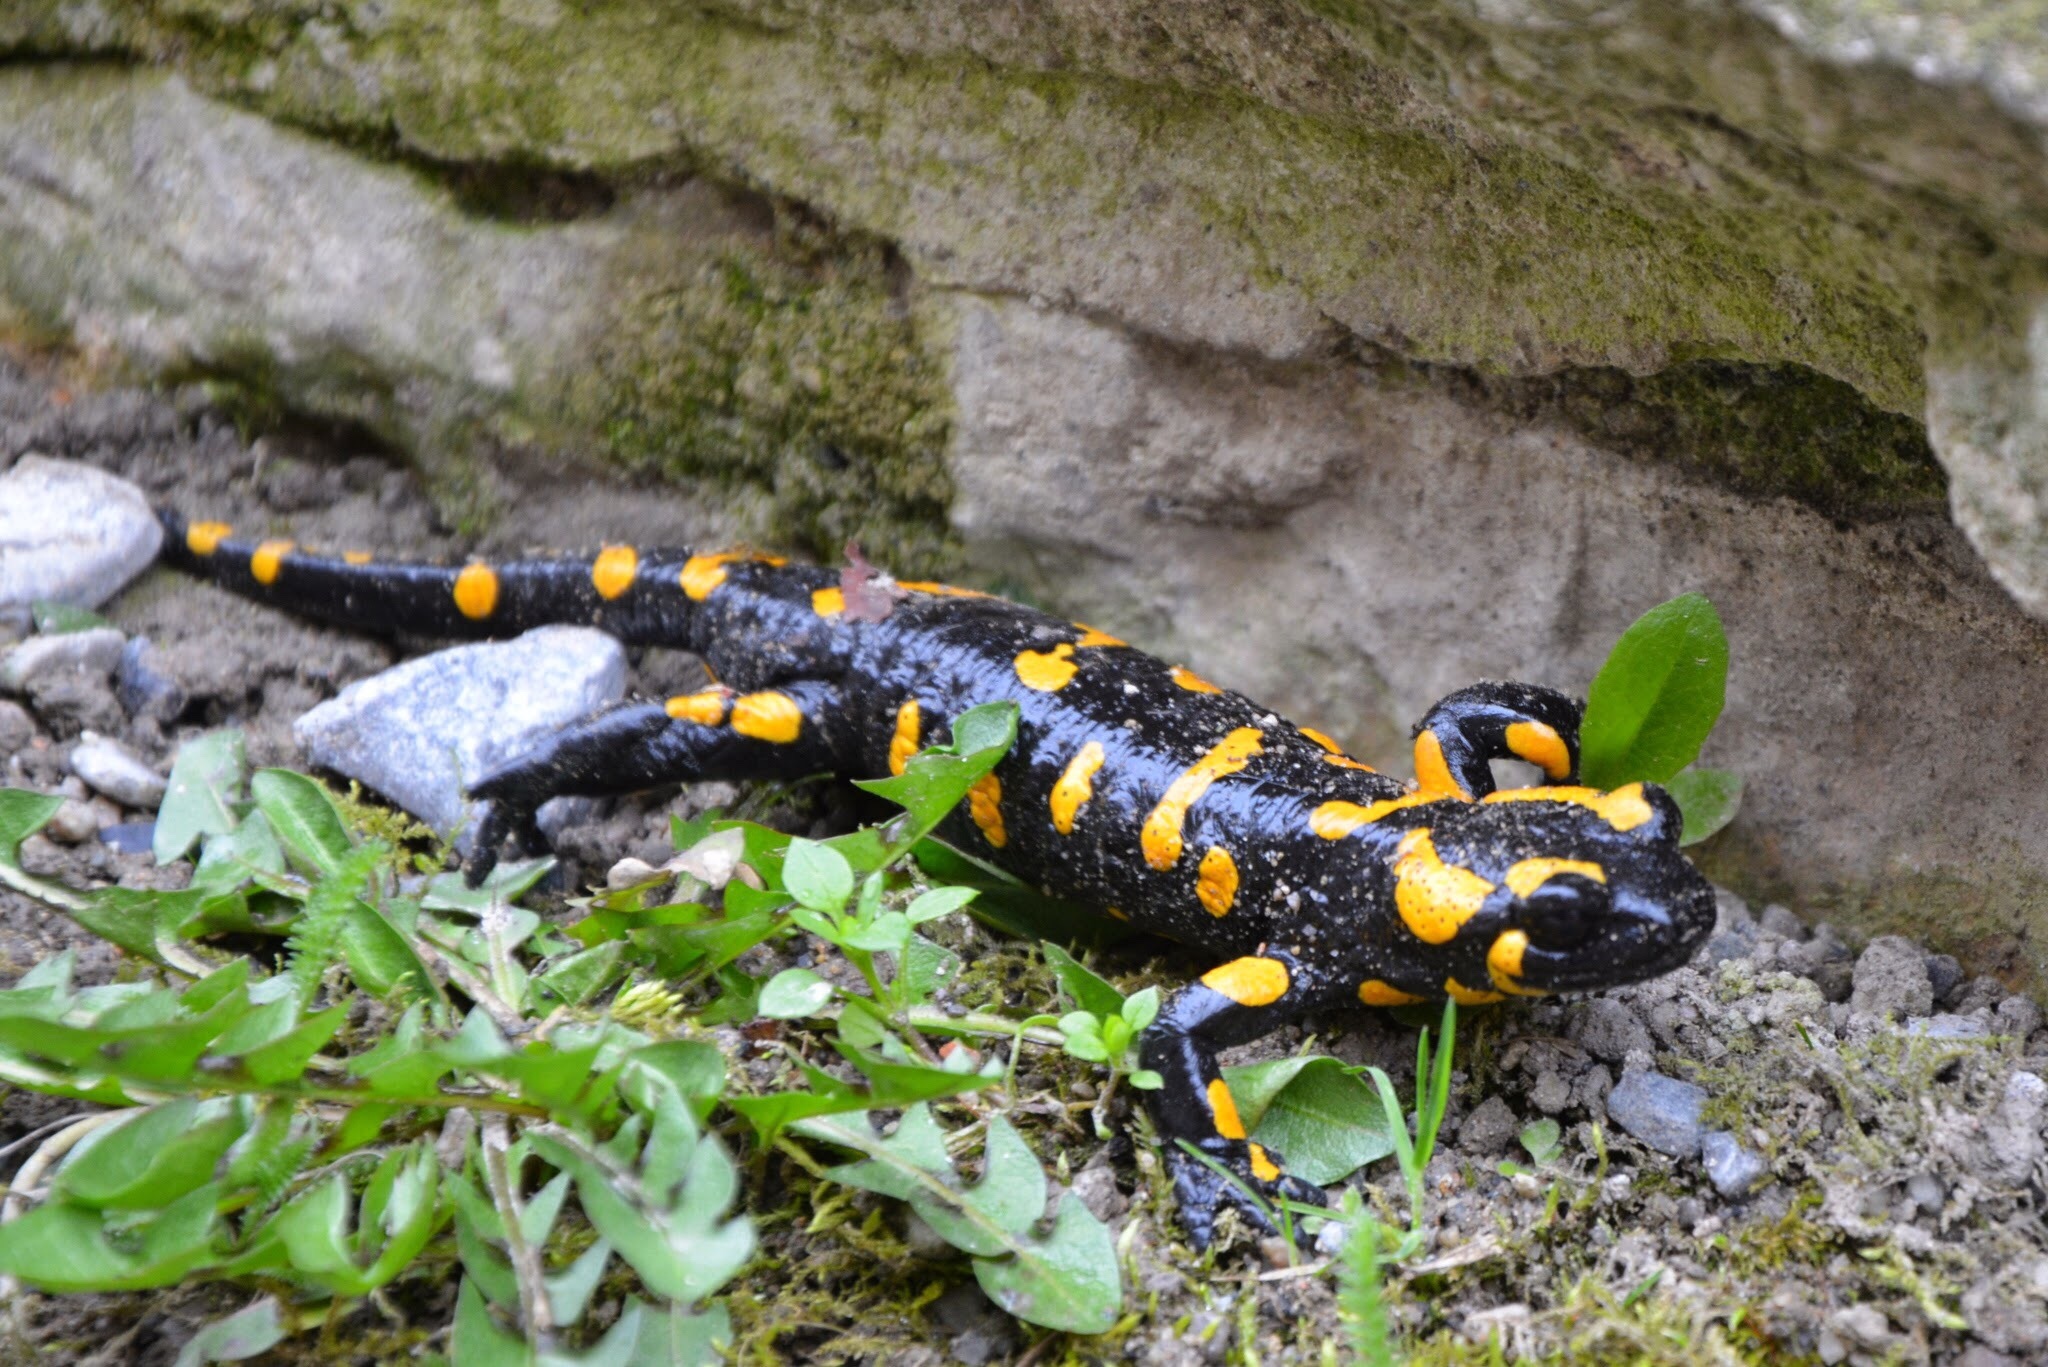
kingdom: Animalia
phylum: Chordata
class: Amphibia
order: Caudata
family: Salamandridae
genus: Salamandra
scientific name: Salamandra salamandra
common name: Fire salamander
